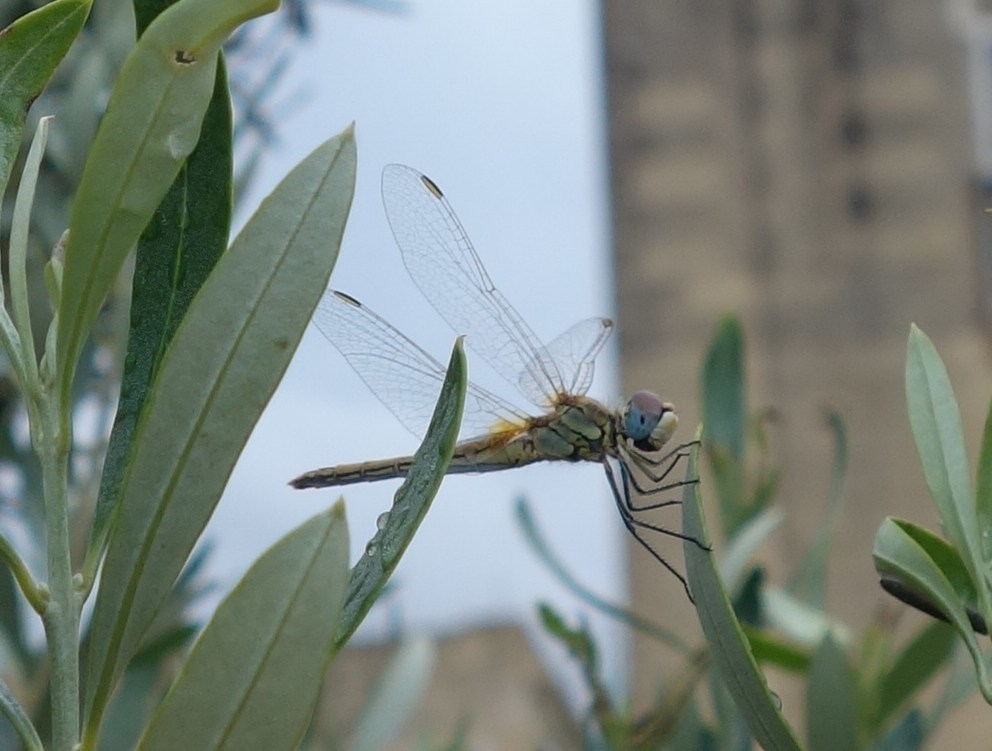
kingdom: Animalia
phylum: Arthropoda
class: Insecta
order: Odonata
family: Libellulidae
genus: Sympetrum
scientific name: Sympetrum fonscolombii
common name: Red-veined darter
